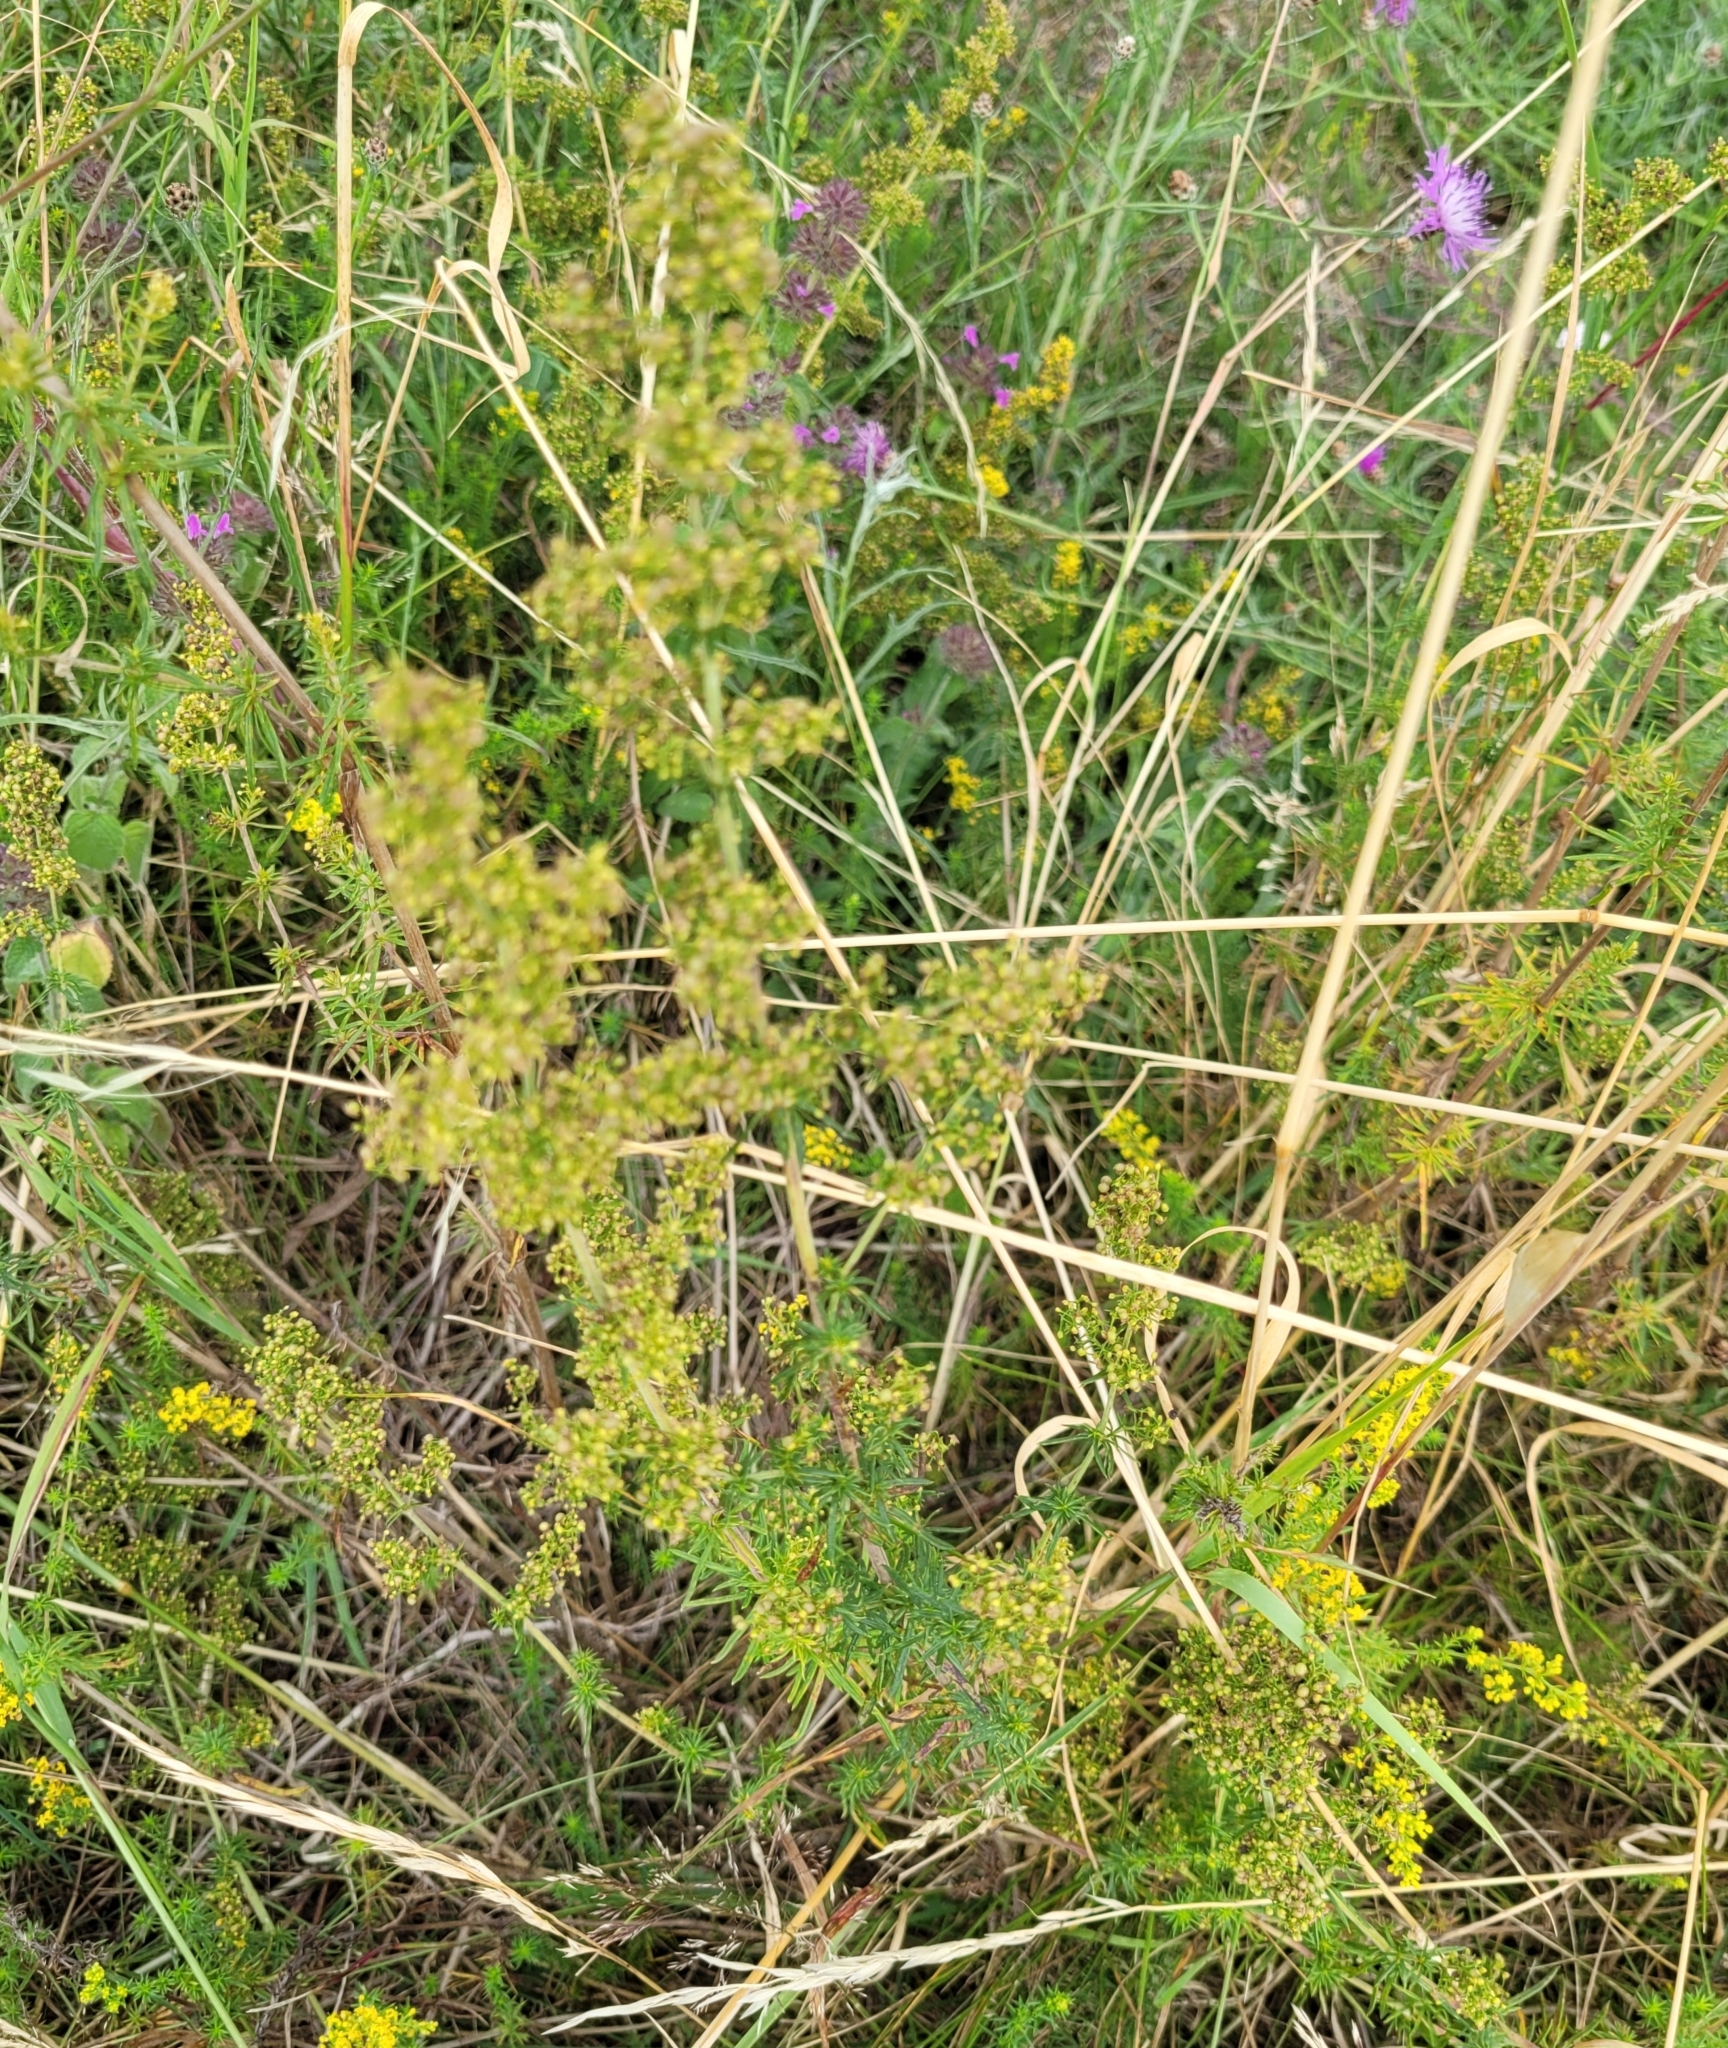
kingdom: Plantae
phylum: Tracheophyta
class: Magnoliopsida
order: Gentianales
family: Rubiaceae
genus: Galium
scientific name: Galium verum
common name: Lady's bedstraw
